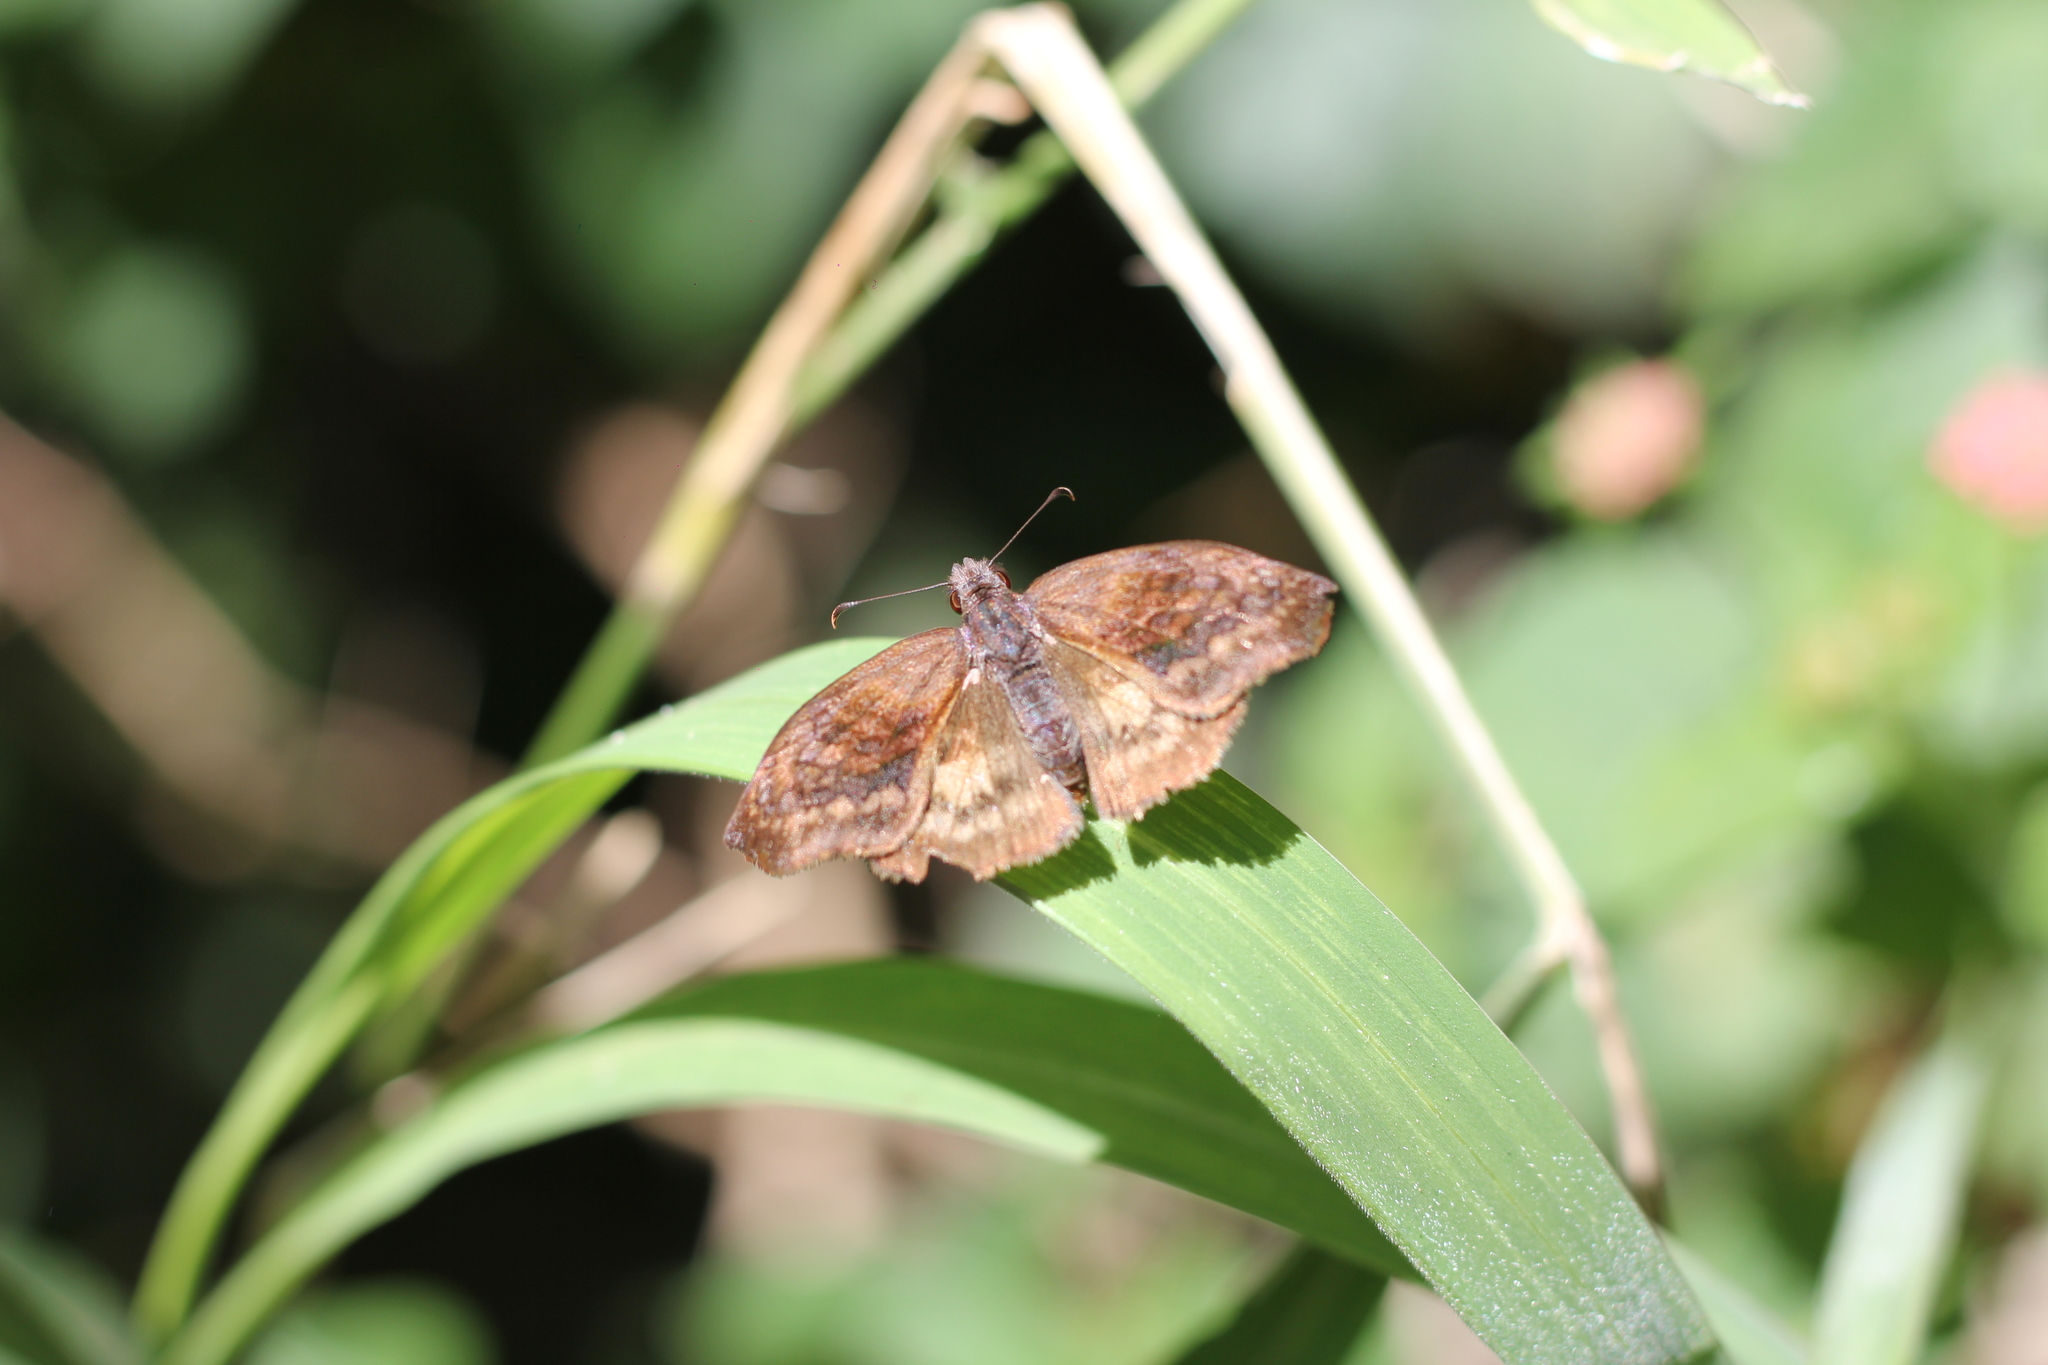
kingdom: Animalia
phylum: Arthropoda
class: Insecta
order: Lepidoptera
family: Hesperiidae
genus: Theagenes
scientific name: Theagenes dichrous
